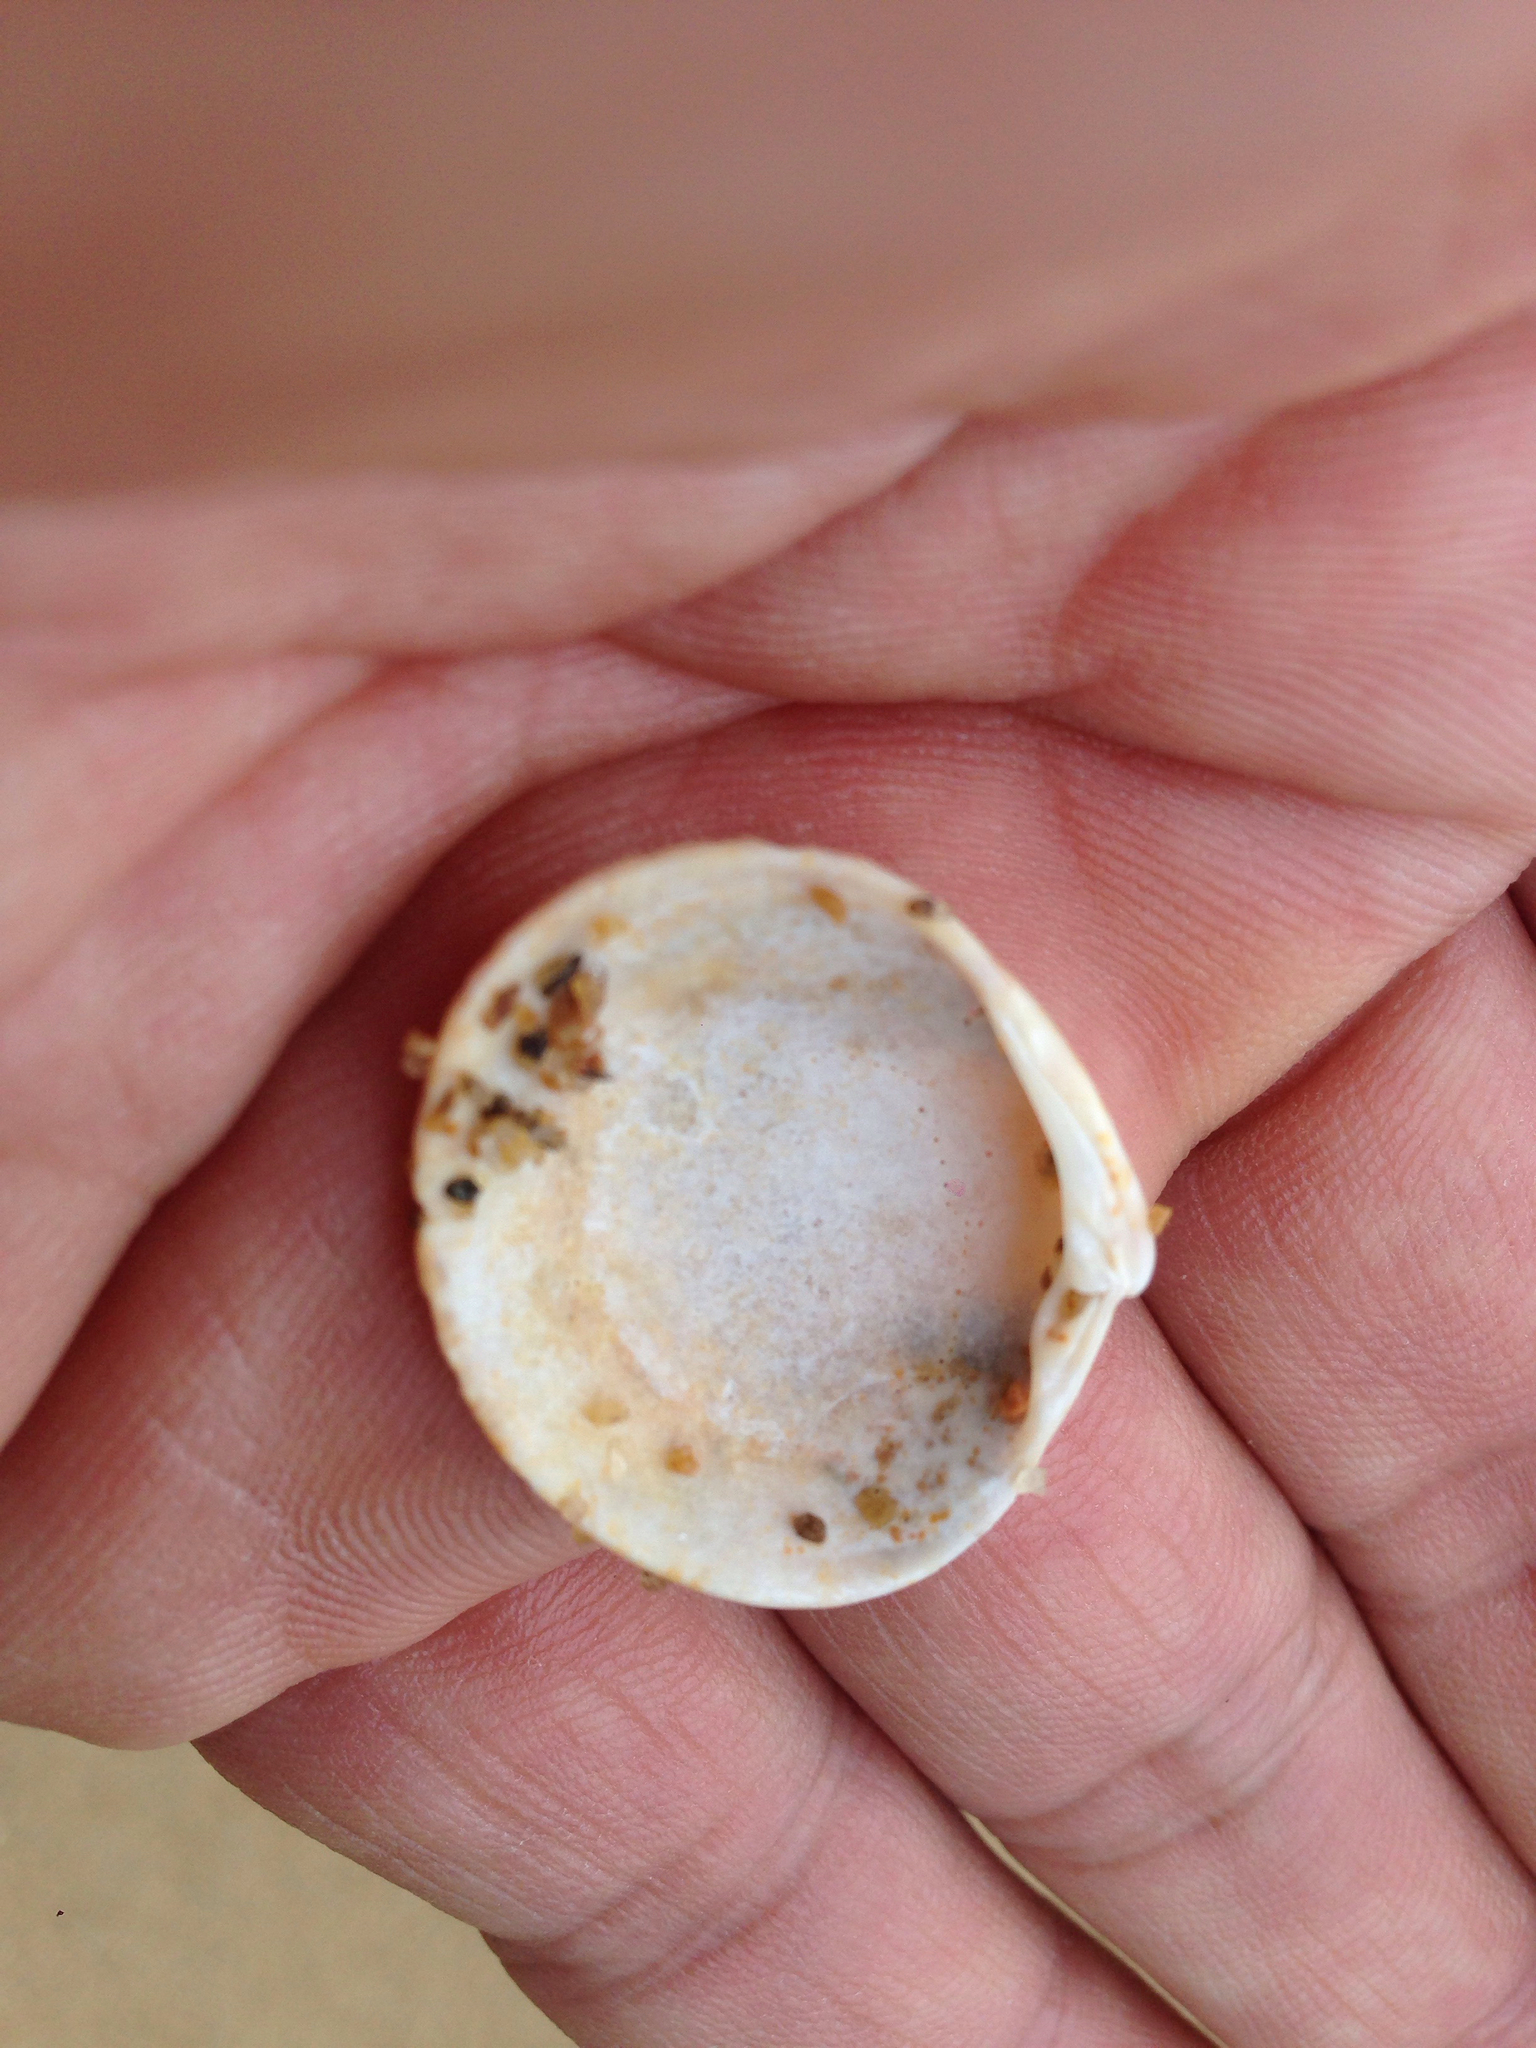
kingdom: Animalia
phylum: Mollusca
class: Bivalvia
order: Venerida
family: Veneridae
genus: Leukoma
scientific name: Leukoma jedoensis
